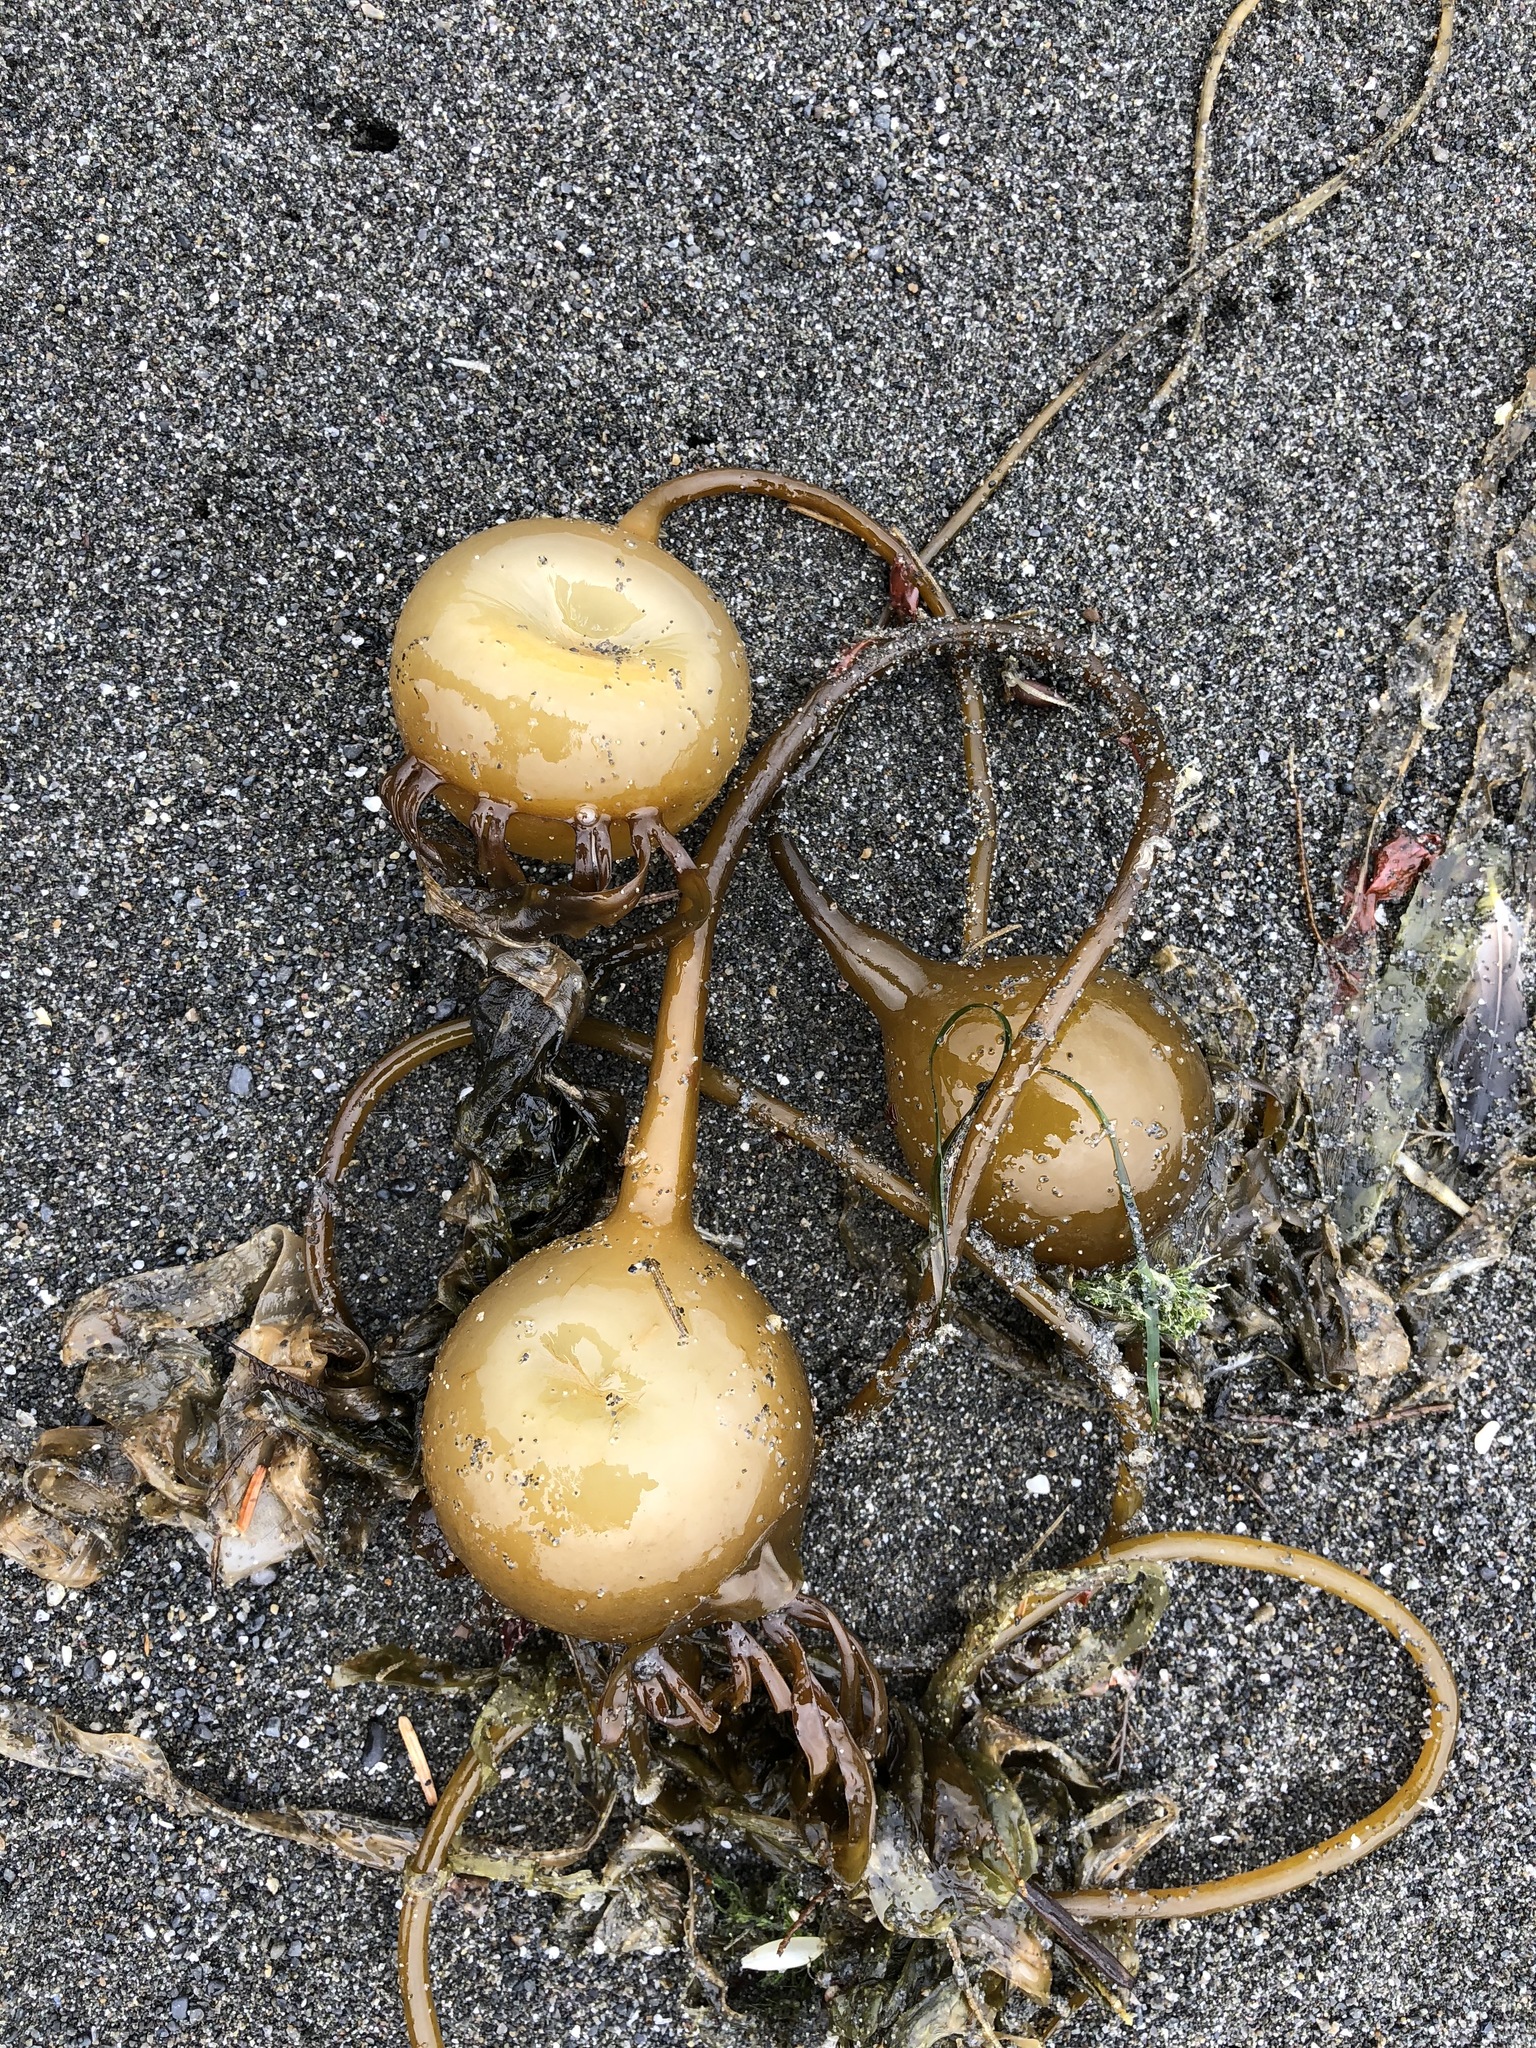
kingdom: Chromista
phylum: Ochrophyta
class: Phaeophyceae
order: Laminariales
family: Laminariaceae
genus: Nereocystis
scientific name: Nereocystis luetkeana
